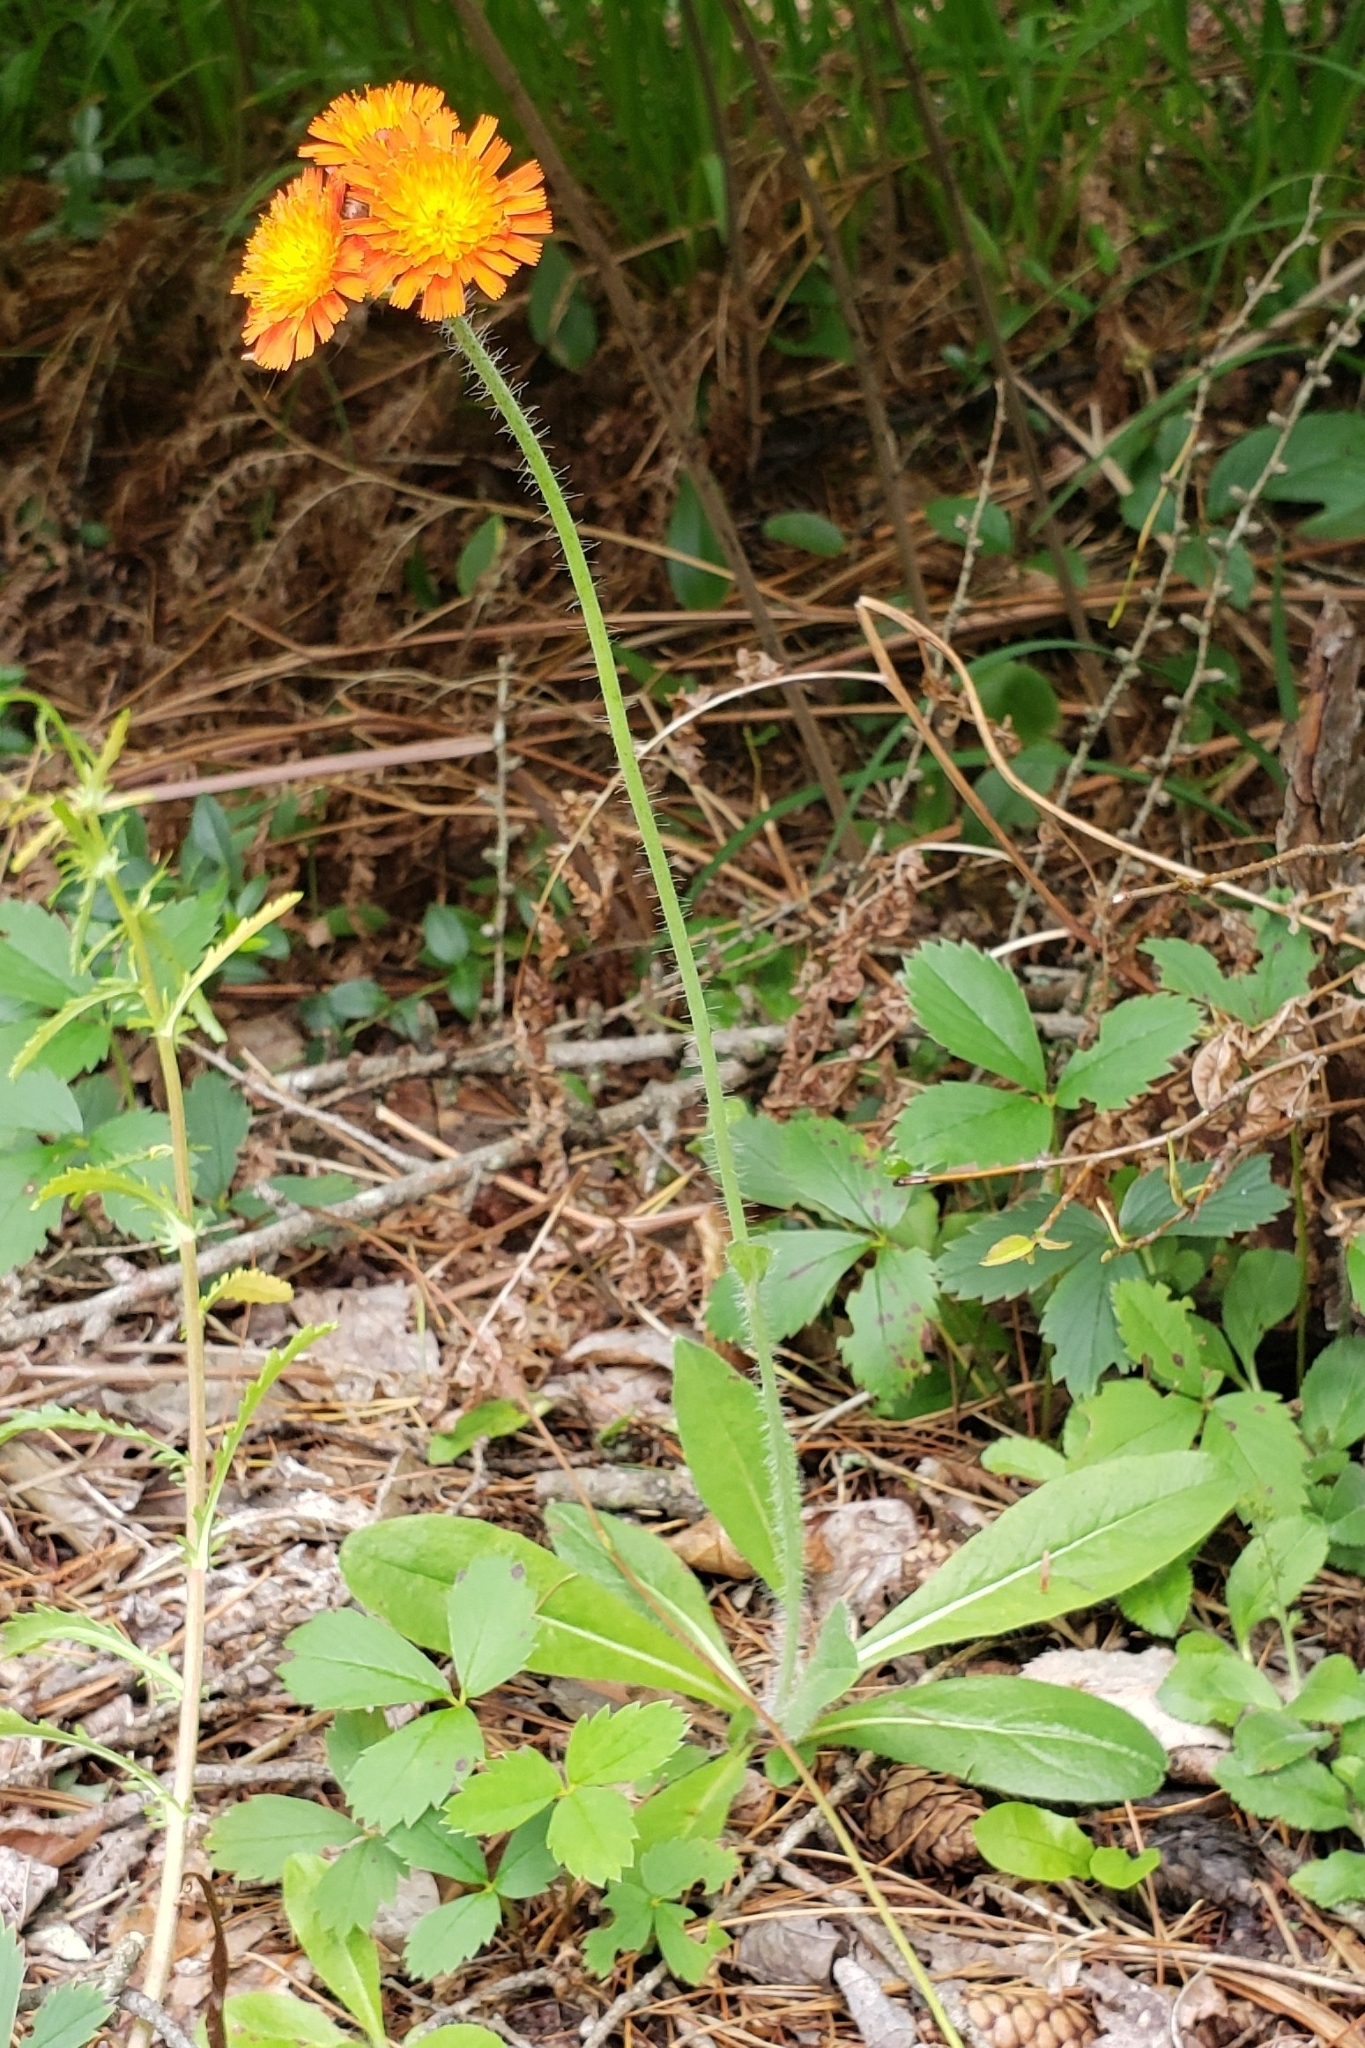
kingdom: Plantae
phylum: Tracheophyta
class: Magnoliopsida
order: Asterales
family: Asteraceae
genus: Pilosella
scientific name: Pilosella aurantiaca
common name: Fox-and-cubs
